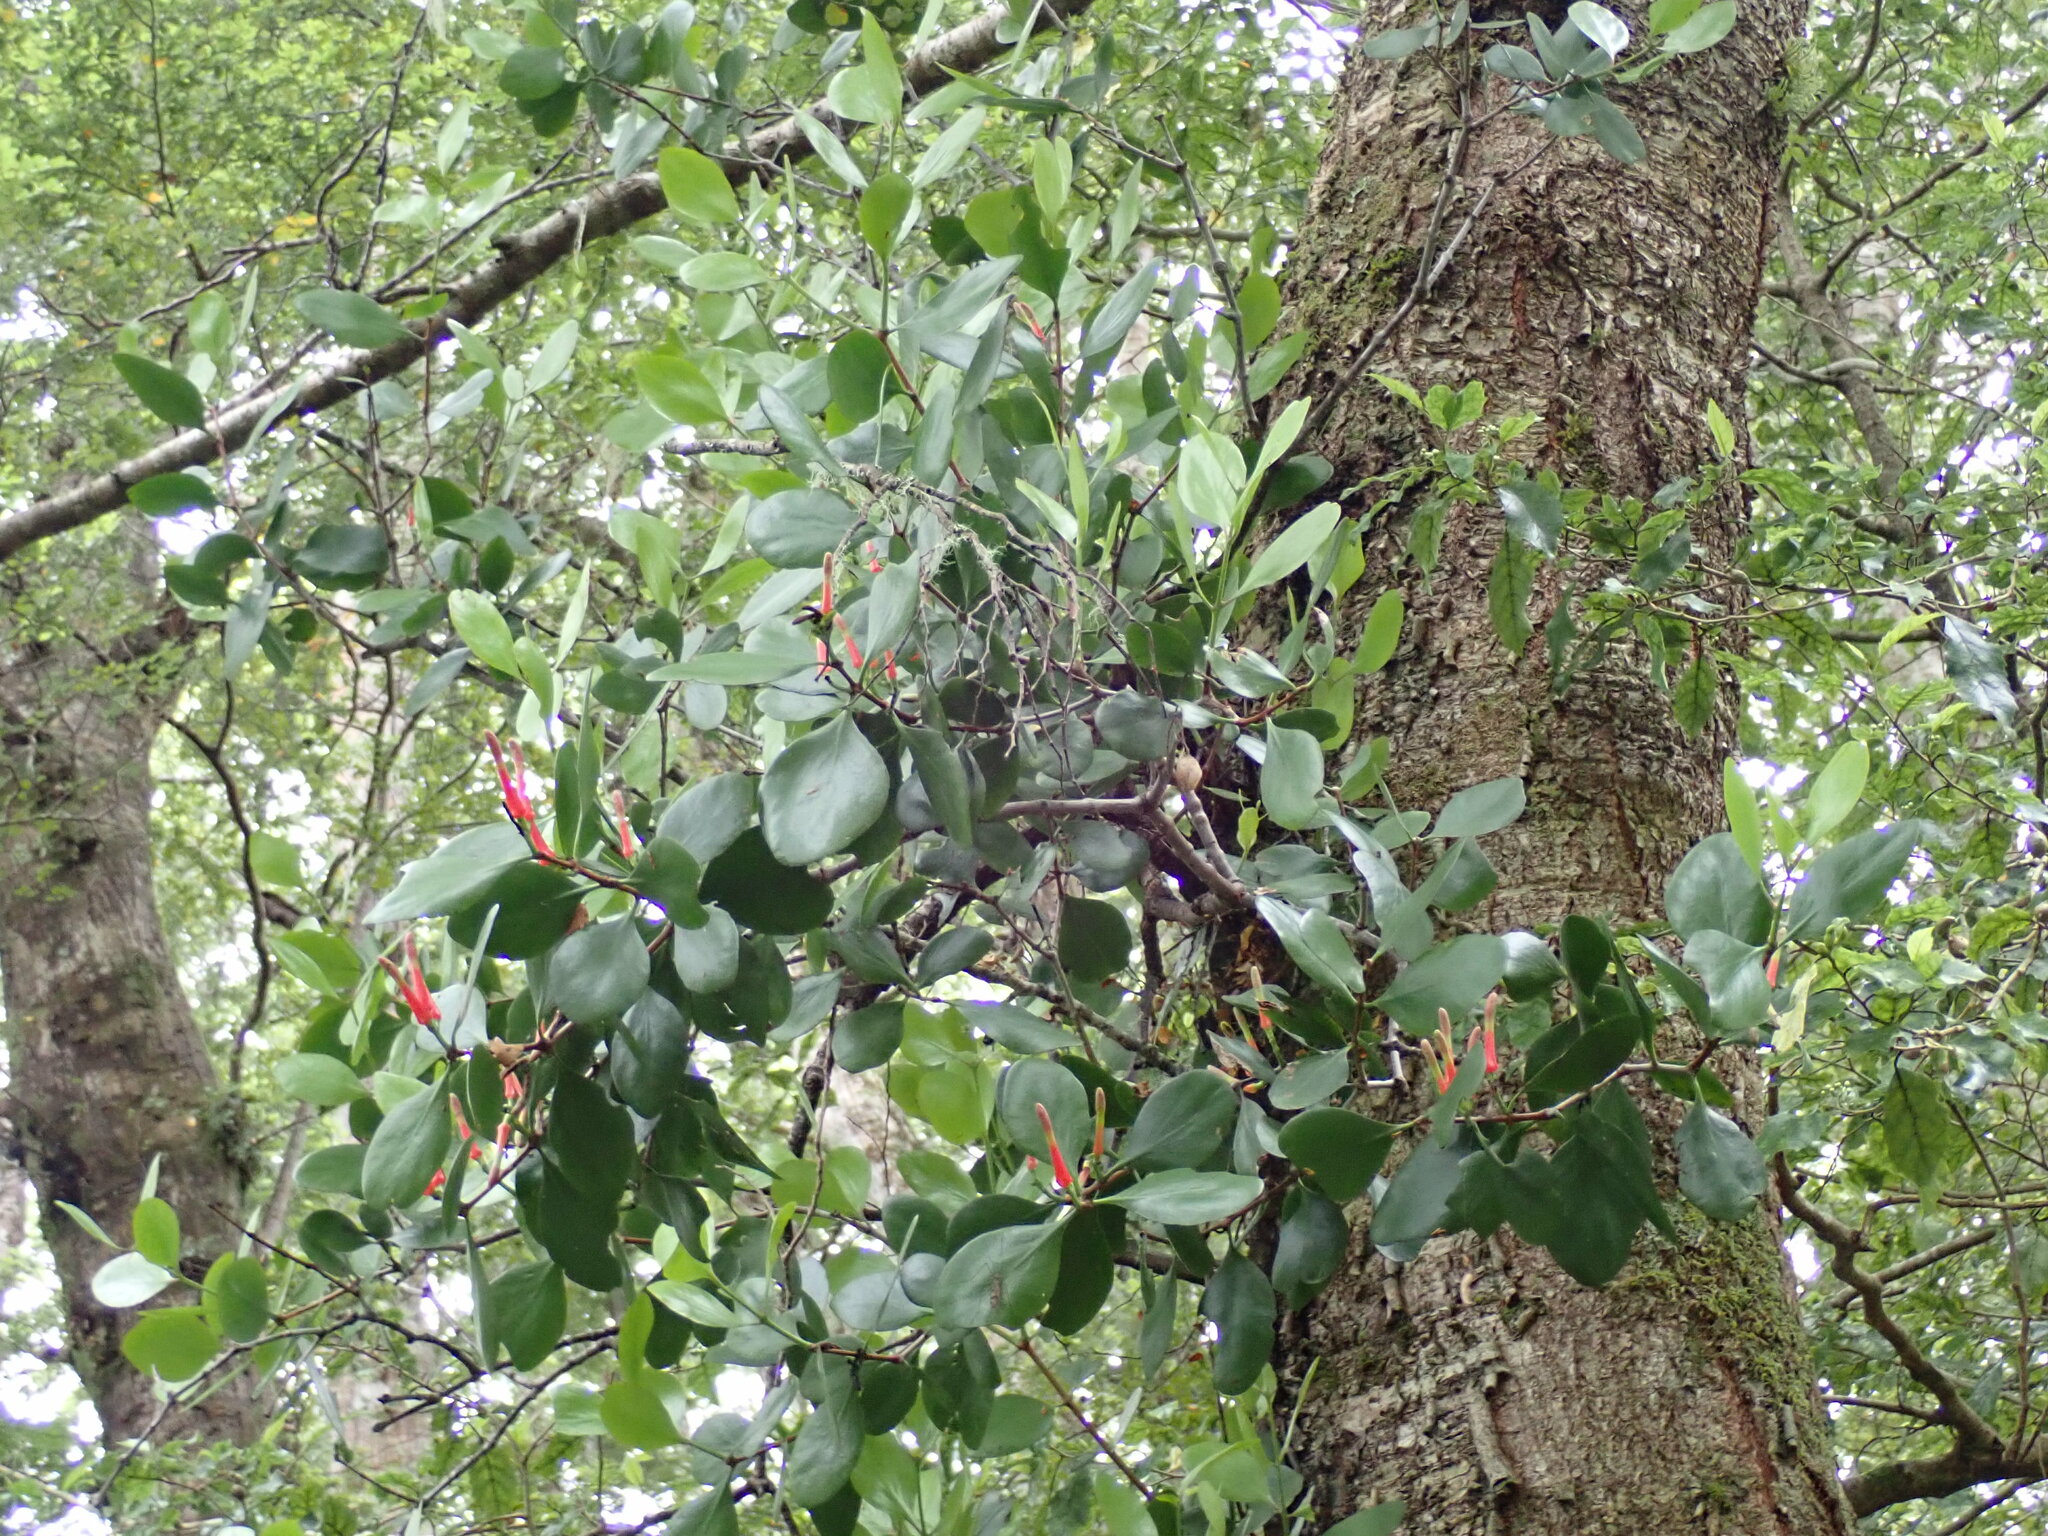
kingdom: Plantae
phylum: Tracheophyta
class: Magnoliopsida
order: Santalales
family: Loranthaceae
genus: Peraxilla
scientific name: Peraxilla colensoi
